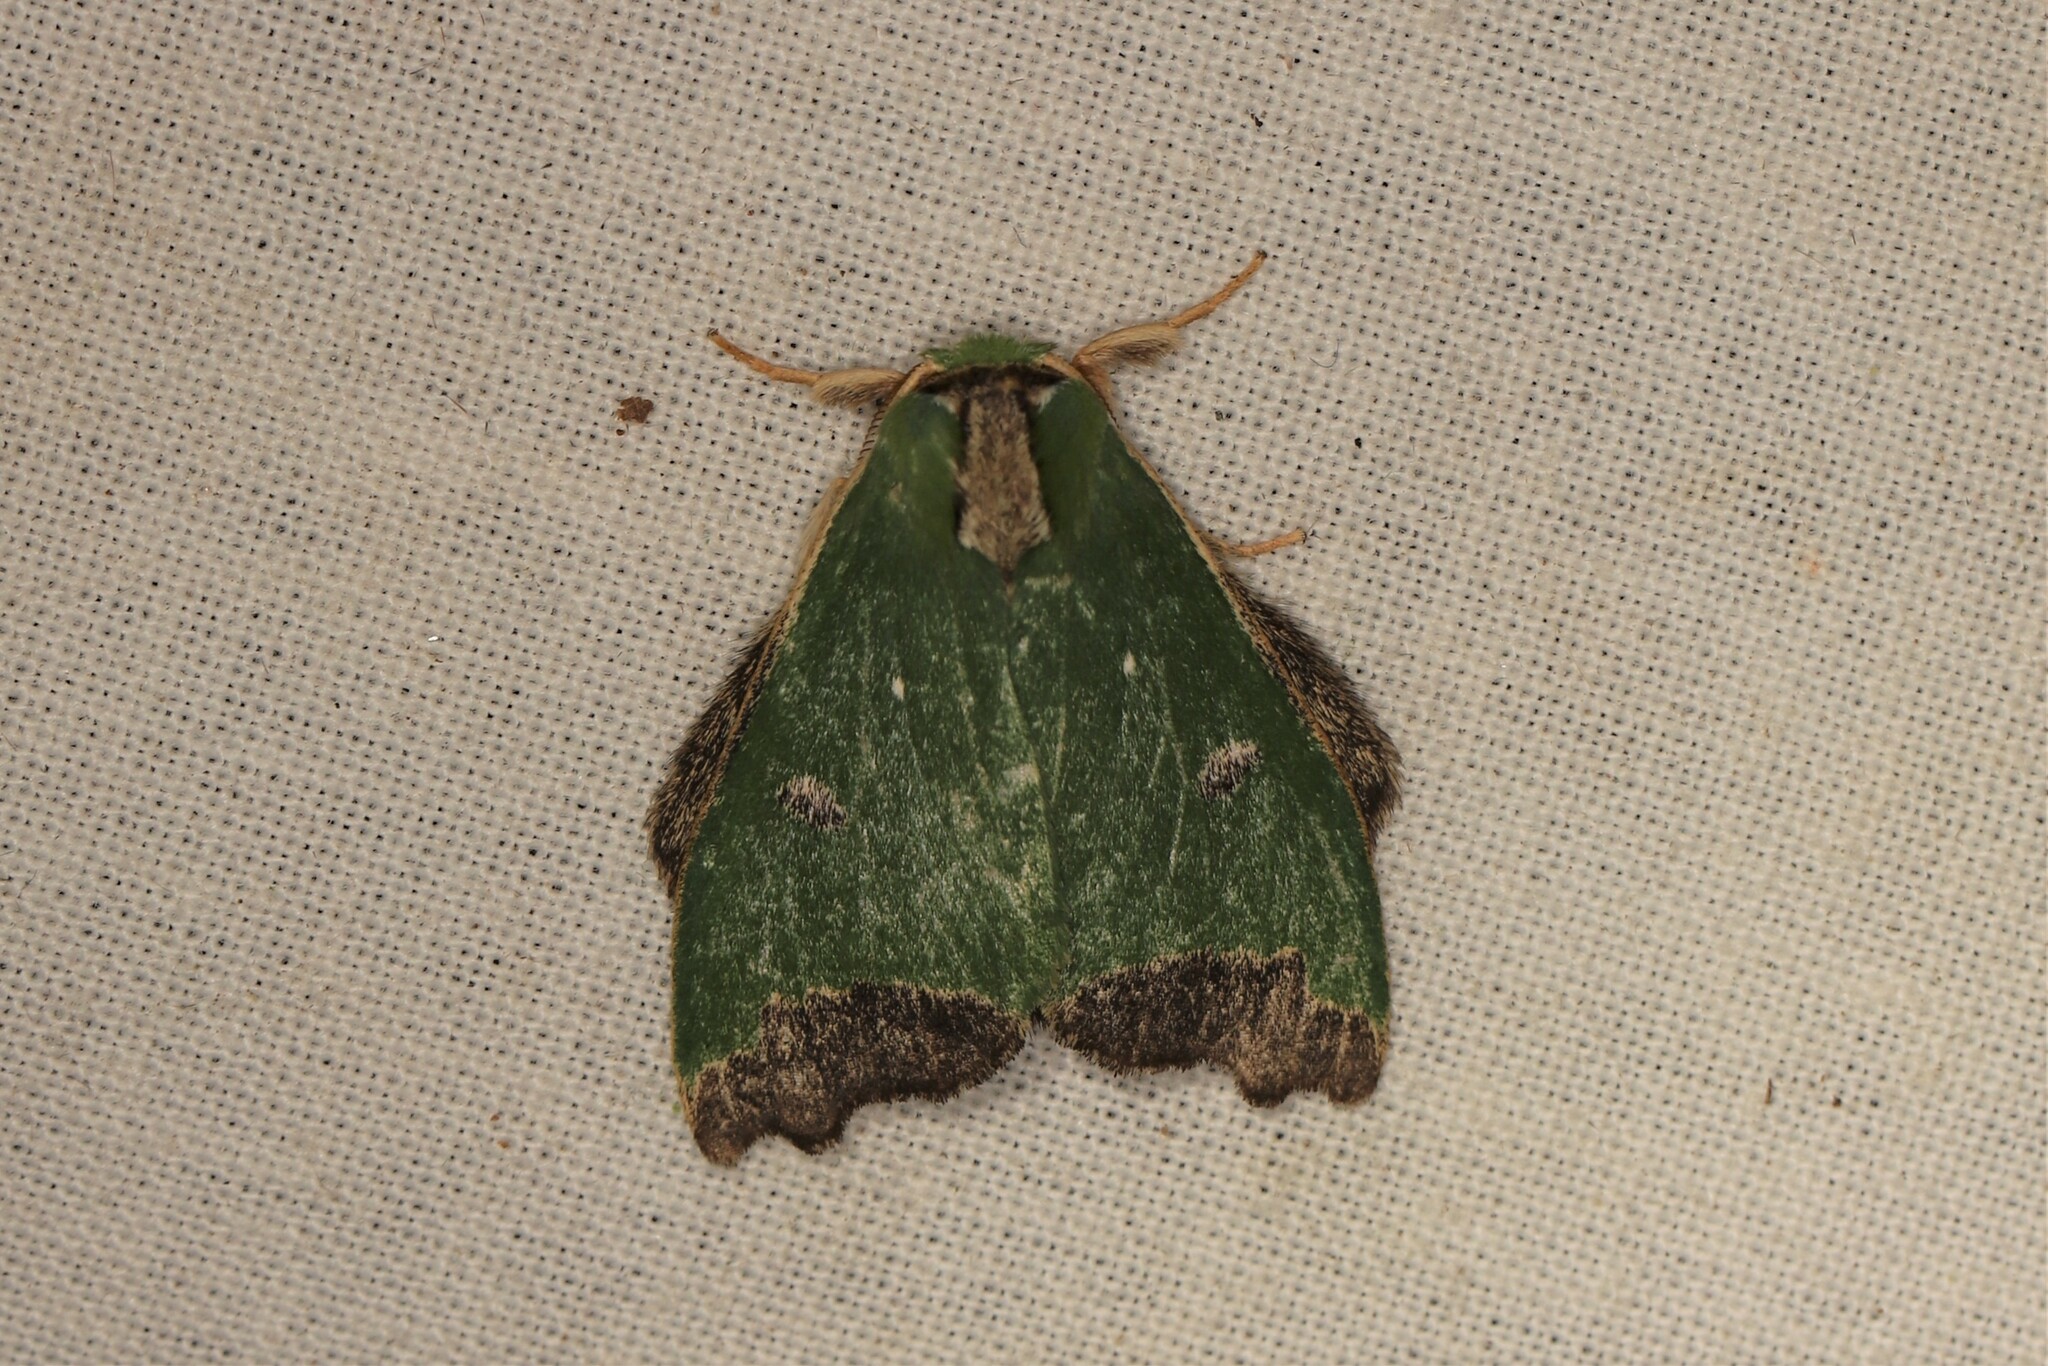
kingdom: Animalia
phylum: Arthropoda
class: Insecta
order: Lepidoptera
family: Notodontidae
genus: Rosema
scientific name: Rosema deolis
